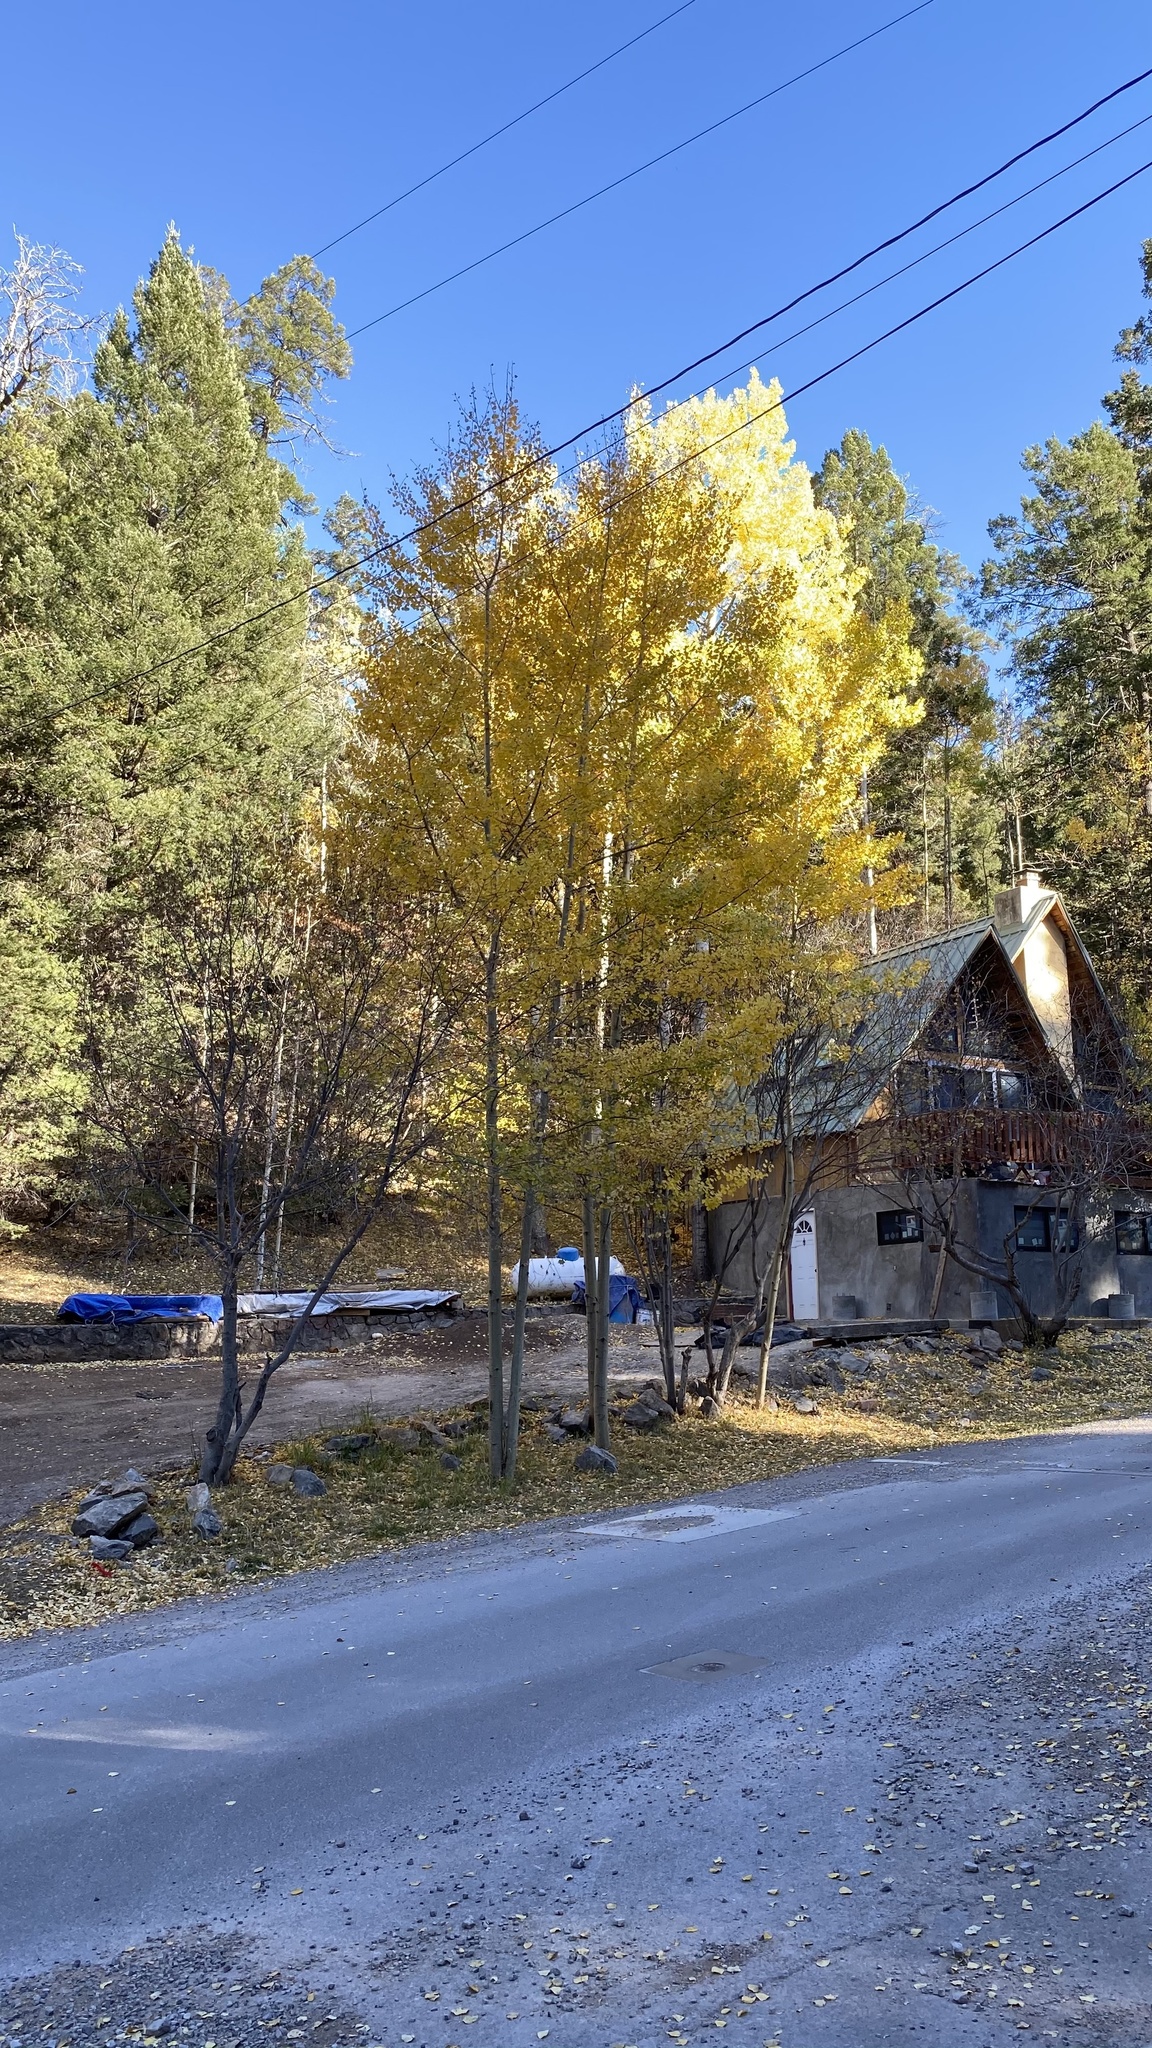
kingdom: Plantae
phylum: Tracheophyta
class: Magnoliopsida
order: Malpighiales
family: Salicaceae
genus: Populus
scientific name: Populus tremuloides
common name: Quaking aspen
